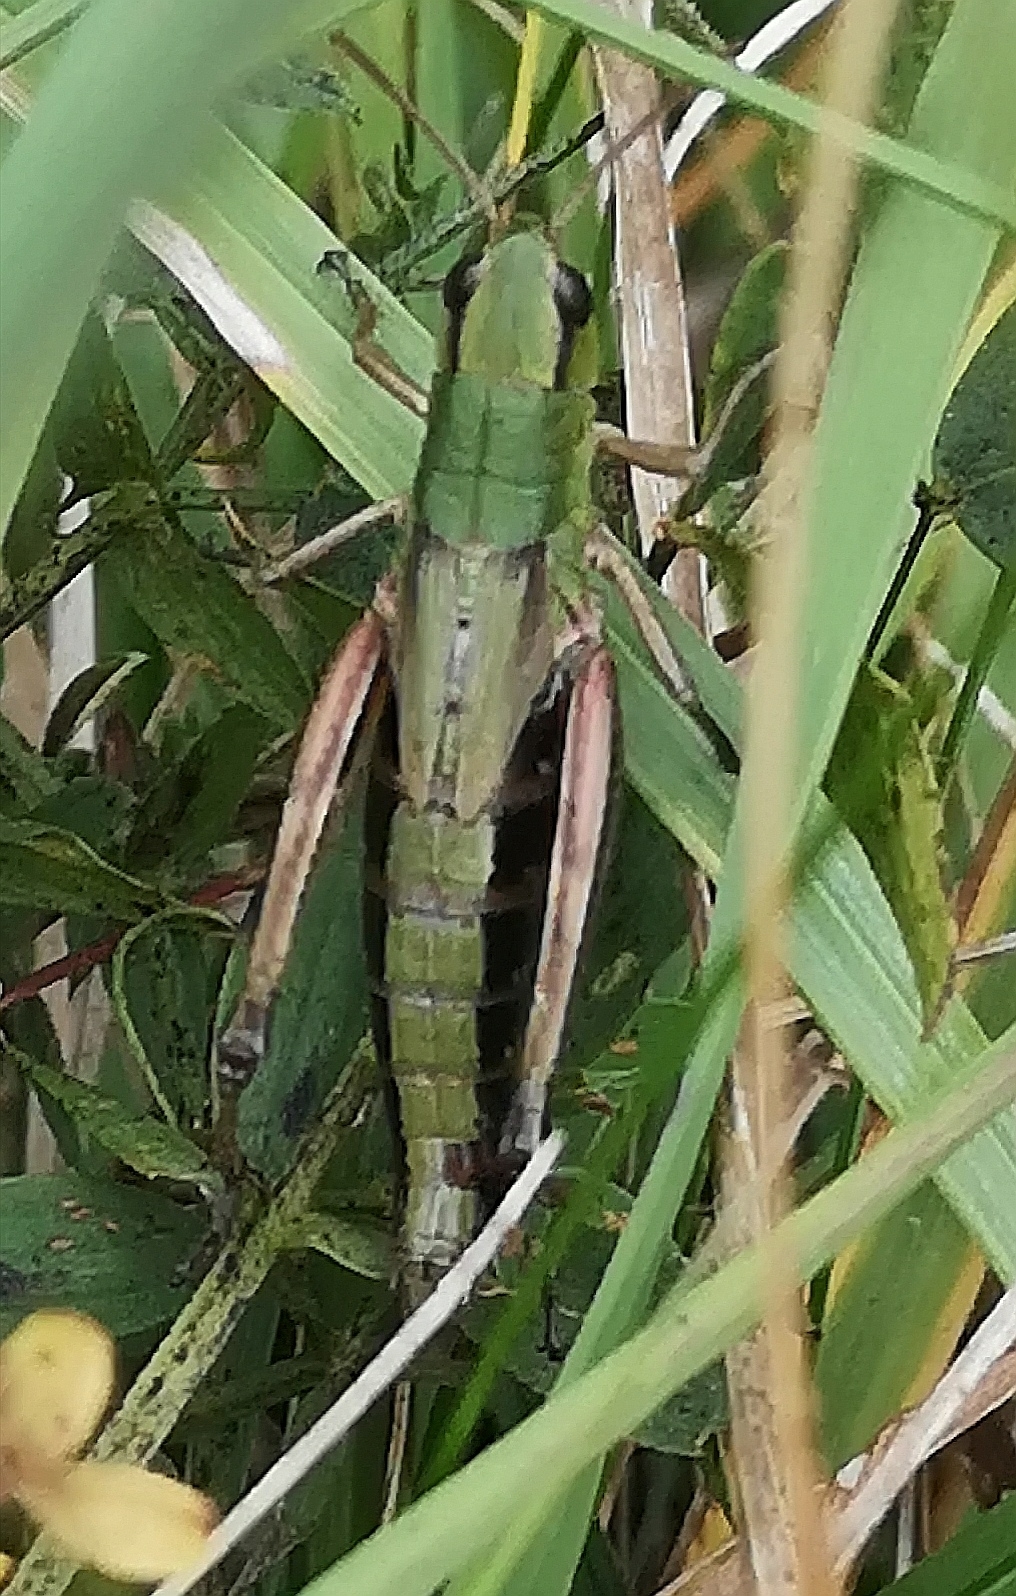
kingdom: Animalia
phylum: Arthropoda
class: Insecta
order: Orthoptera
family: Acrididae
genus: Pseudochorthippus
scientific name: Pseudochorthippus parallelus
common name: Meadow grasshopper
